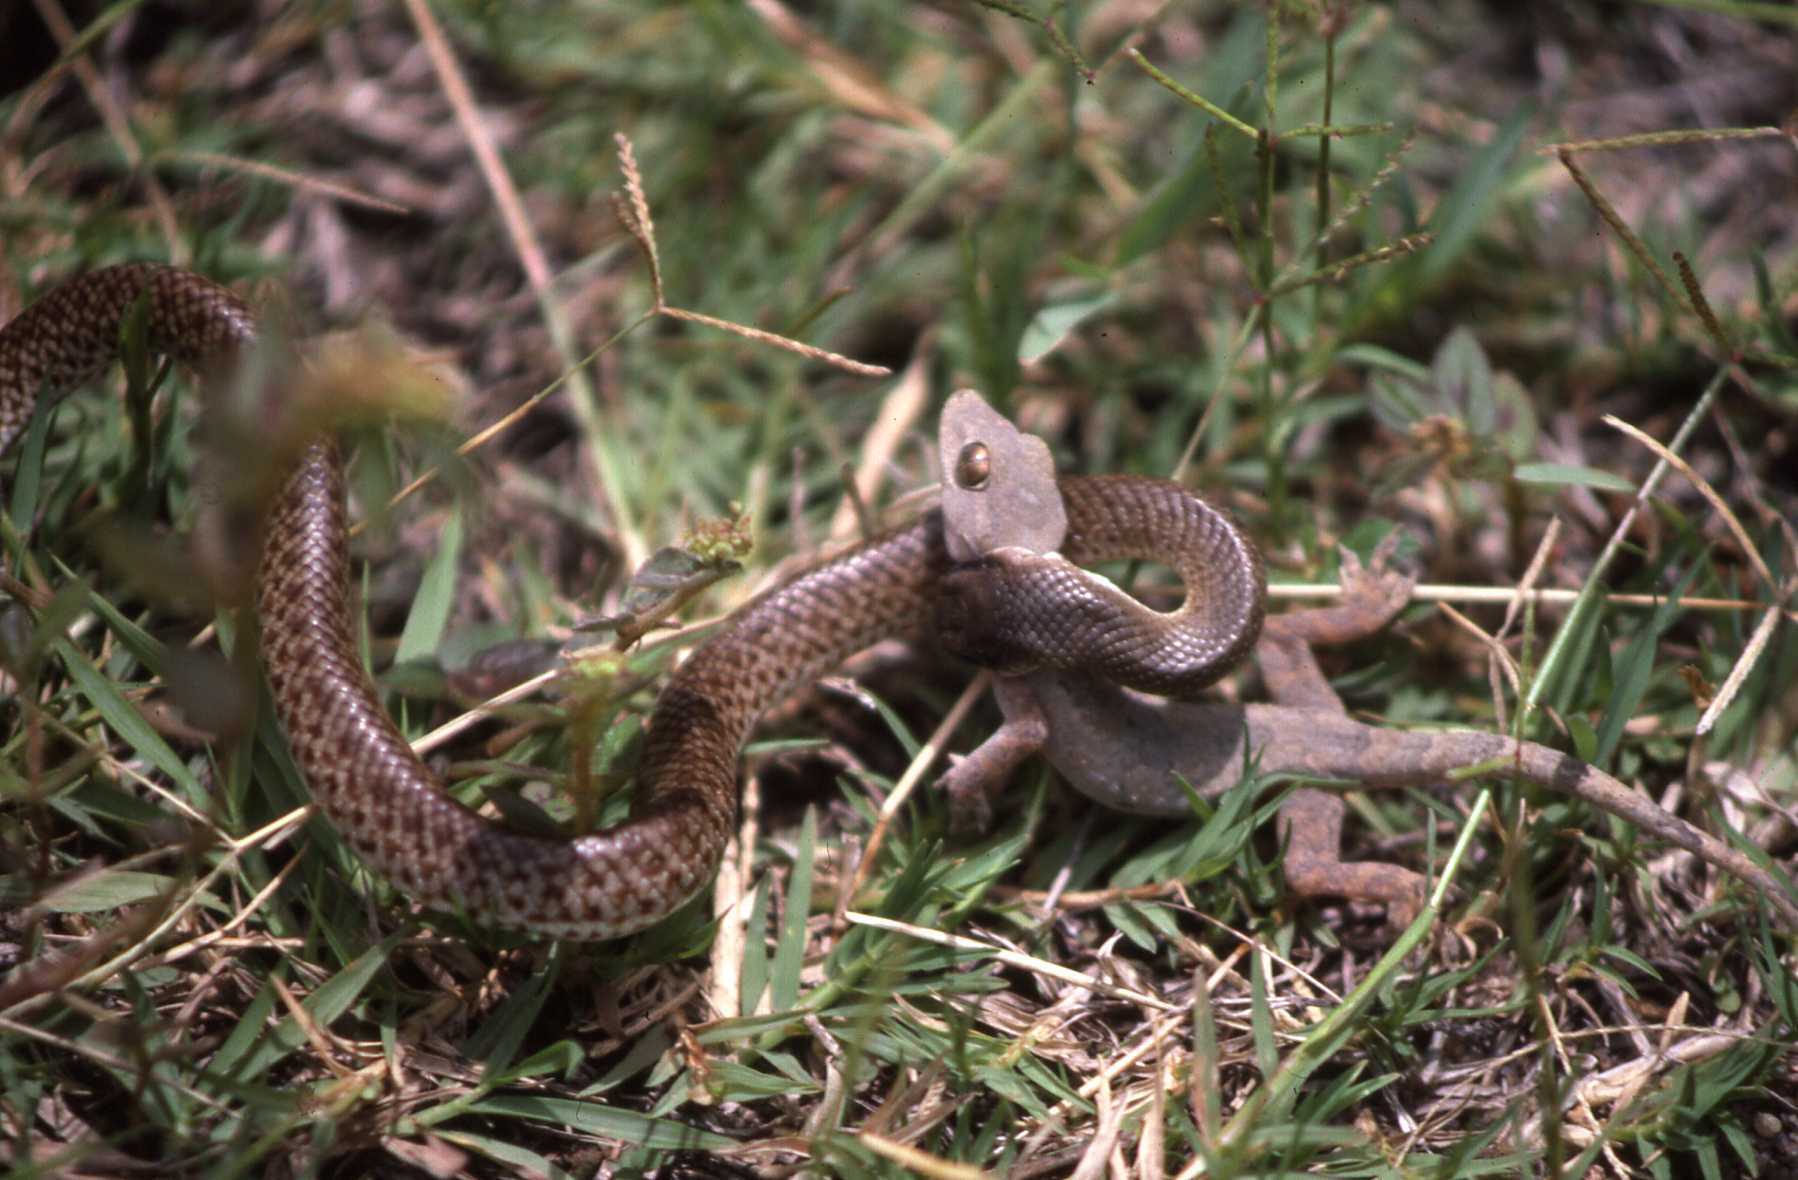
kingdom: Animalia
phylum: Chordata
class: Squamata
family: Psammophiidae
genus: Rhamphiophis
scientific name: Rhamphiophis rostratus
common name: Rufous beaked snake
